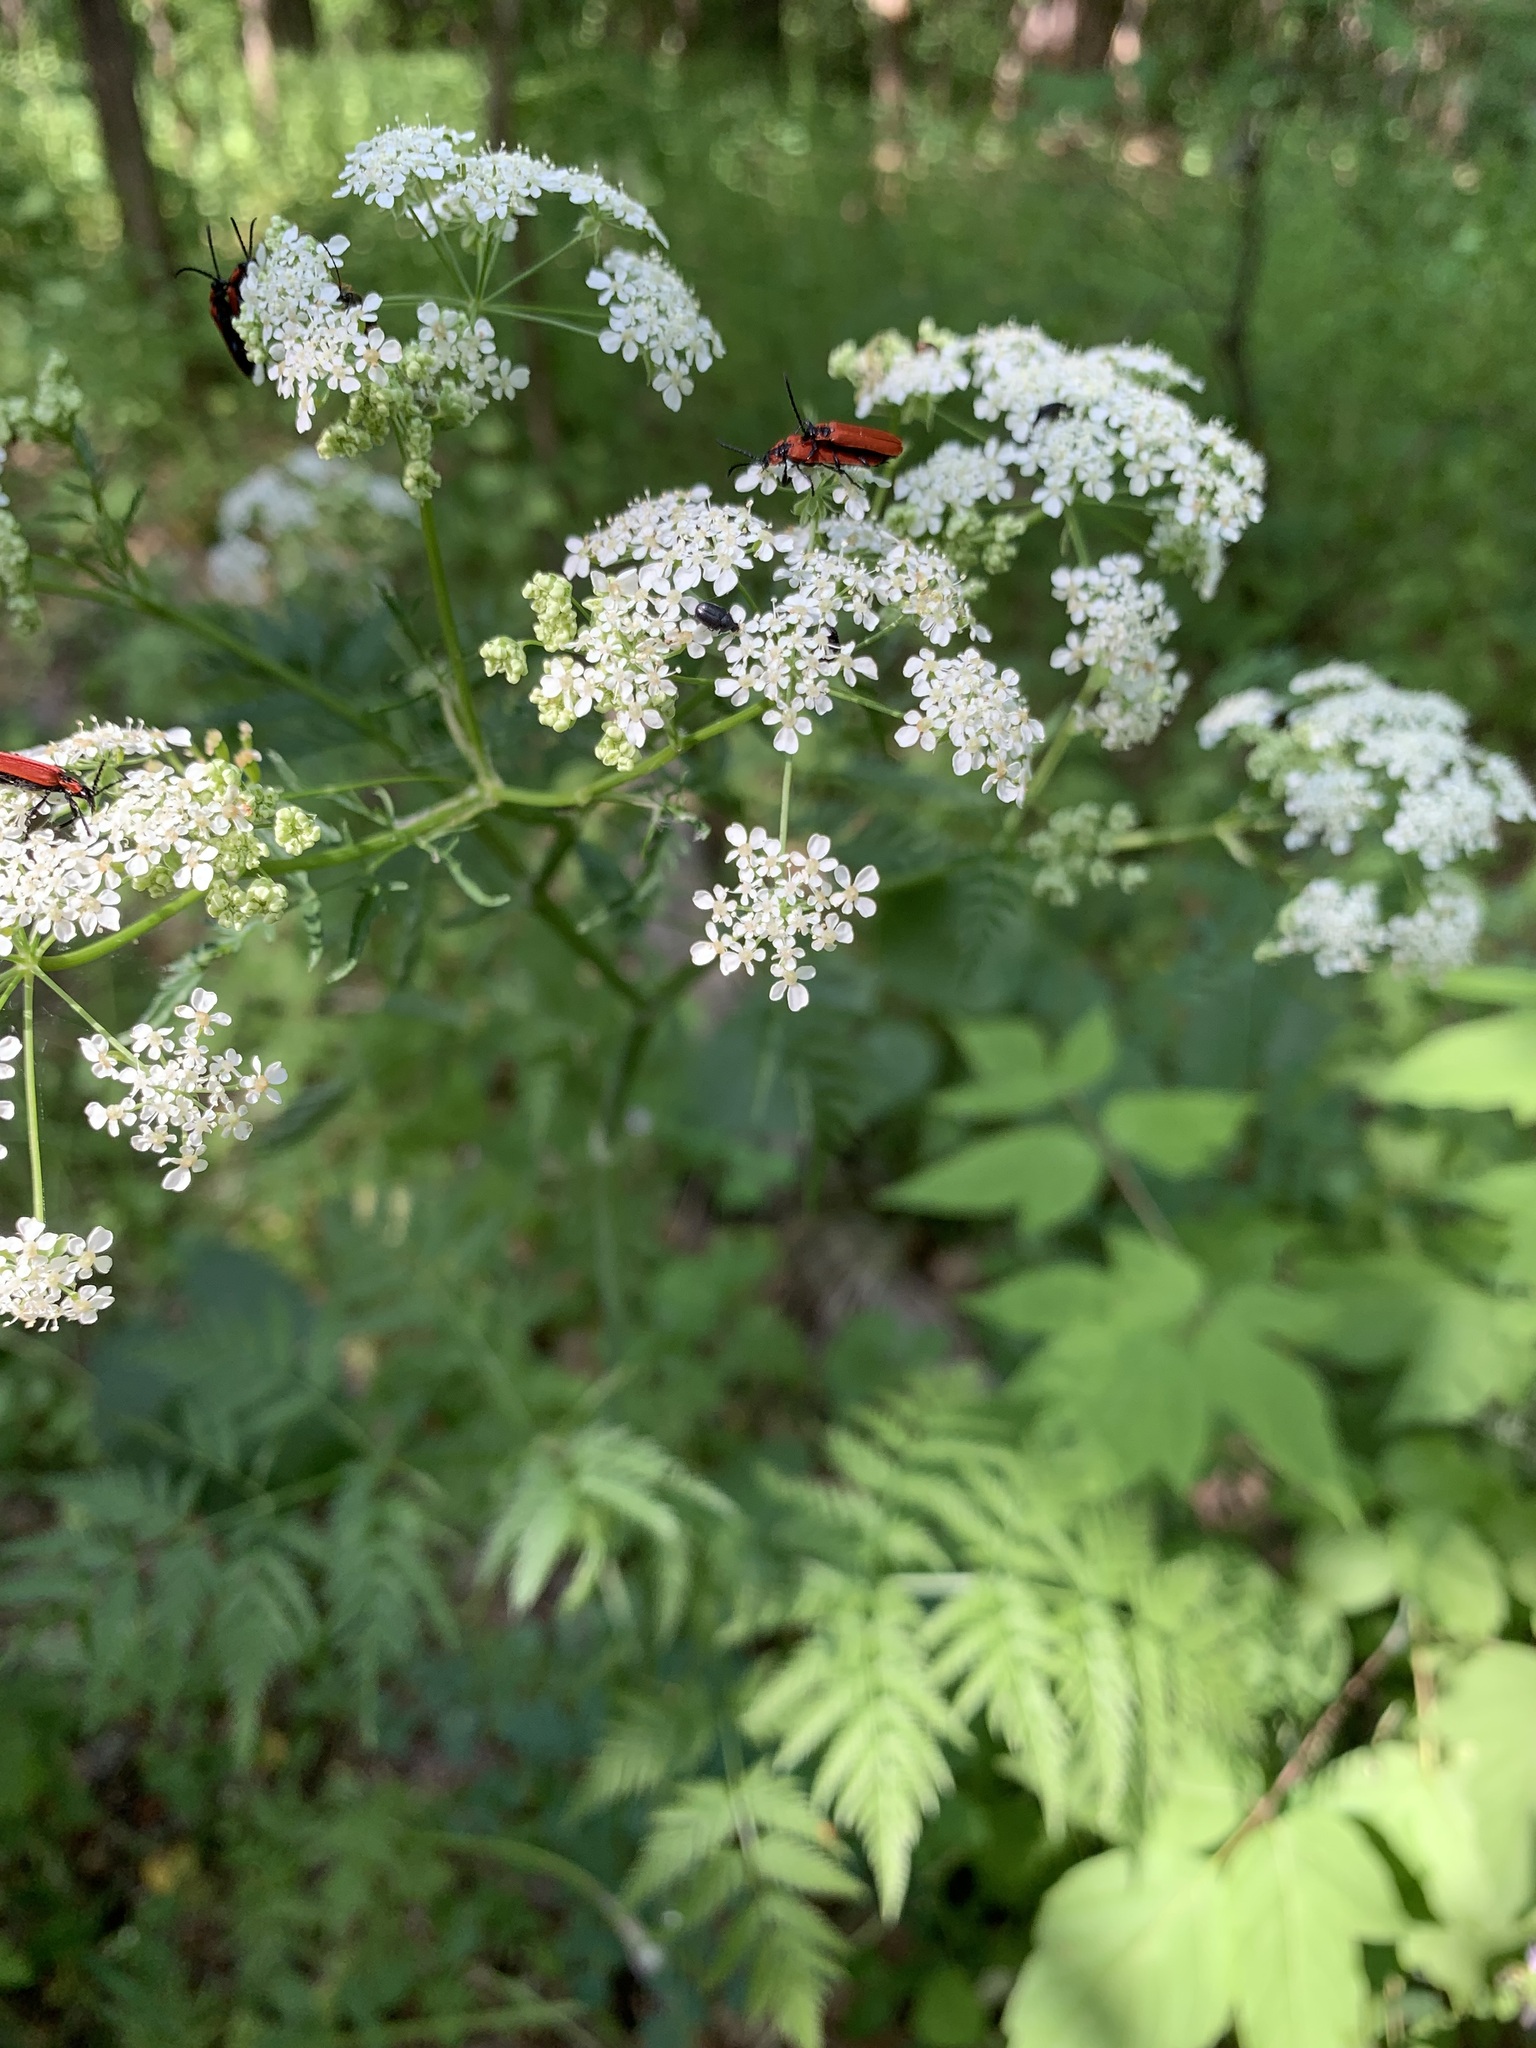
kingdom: Plantae
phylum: Tracheophyta
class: Magnoliopsida
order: Apiales
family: Apiaceae
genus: Anthriscus
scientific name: Anthriscus sylvestris
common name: Cow parsley
